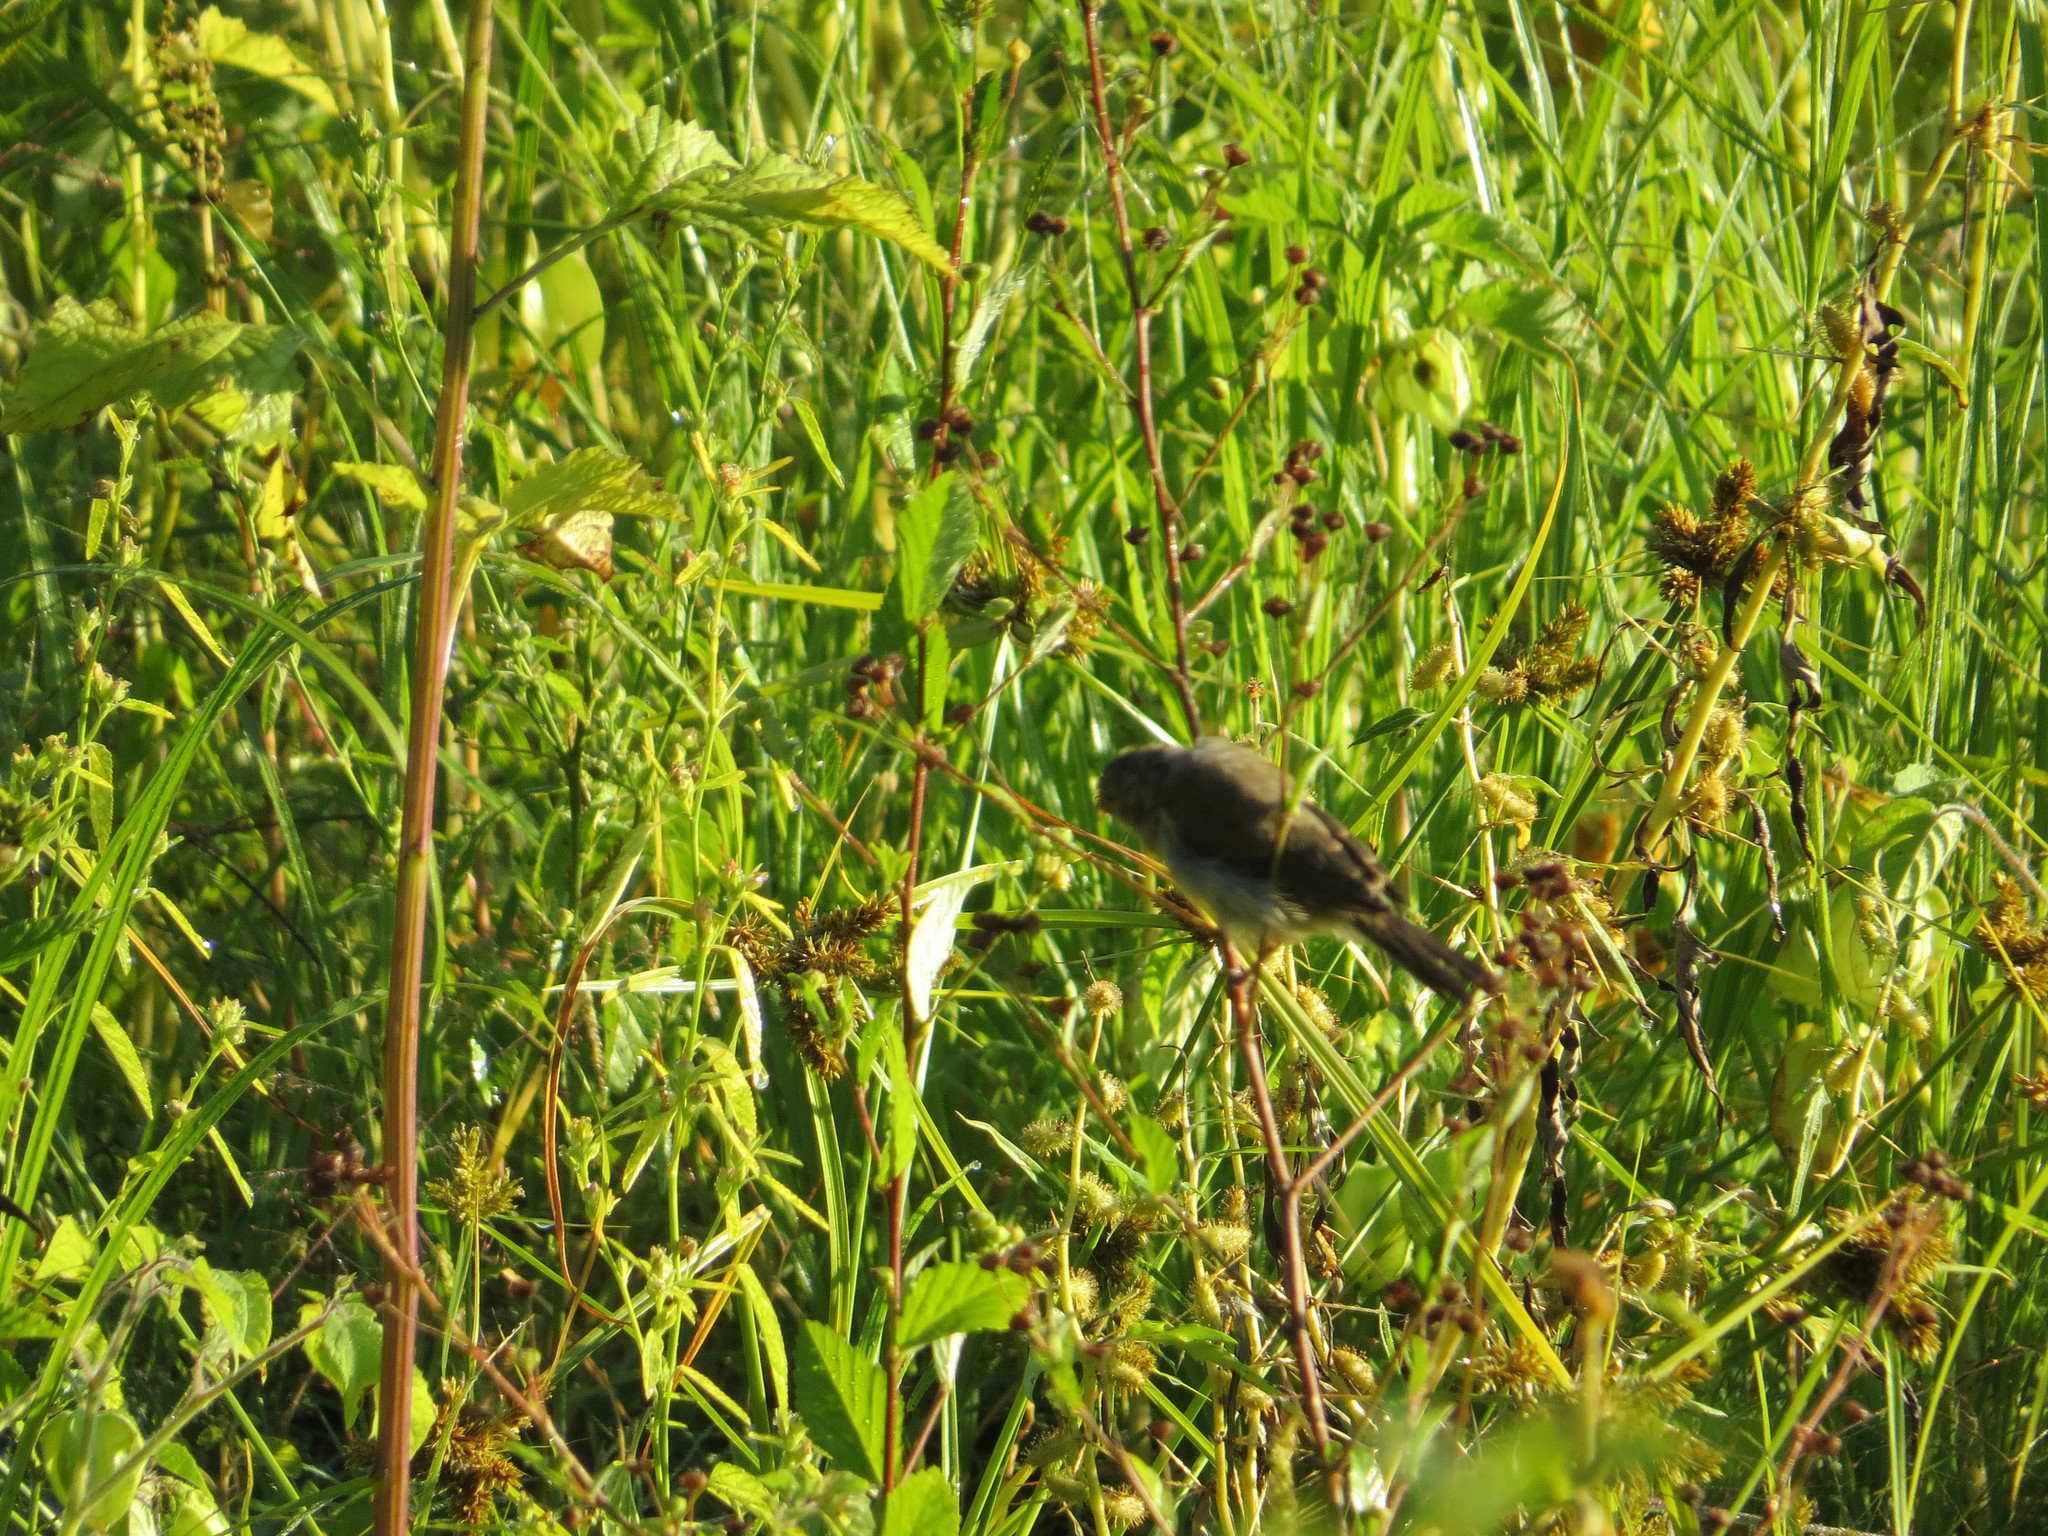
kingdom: Animalia
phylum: Chordata
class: Aves
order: Passeriformes
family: Thraupidae
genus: Asemospiza
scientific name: Asemospiza obscura
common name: Dull-colored grassquit
